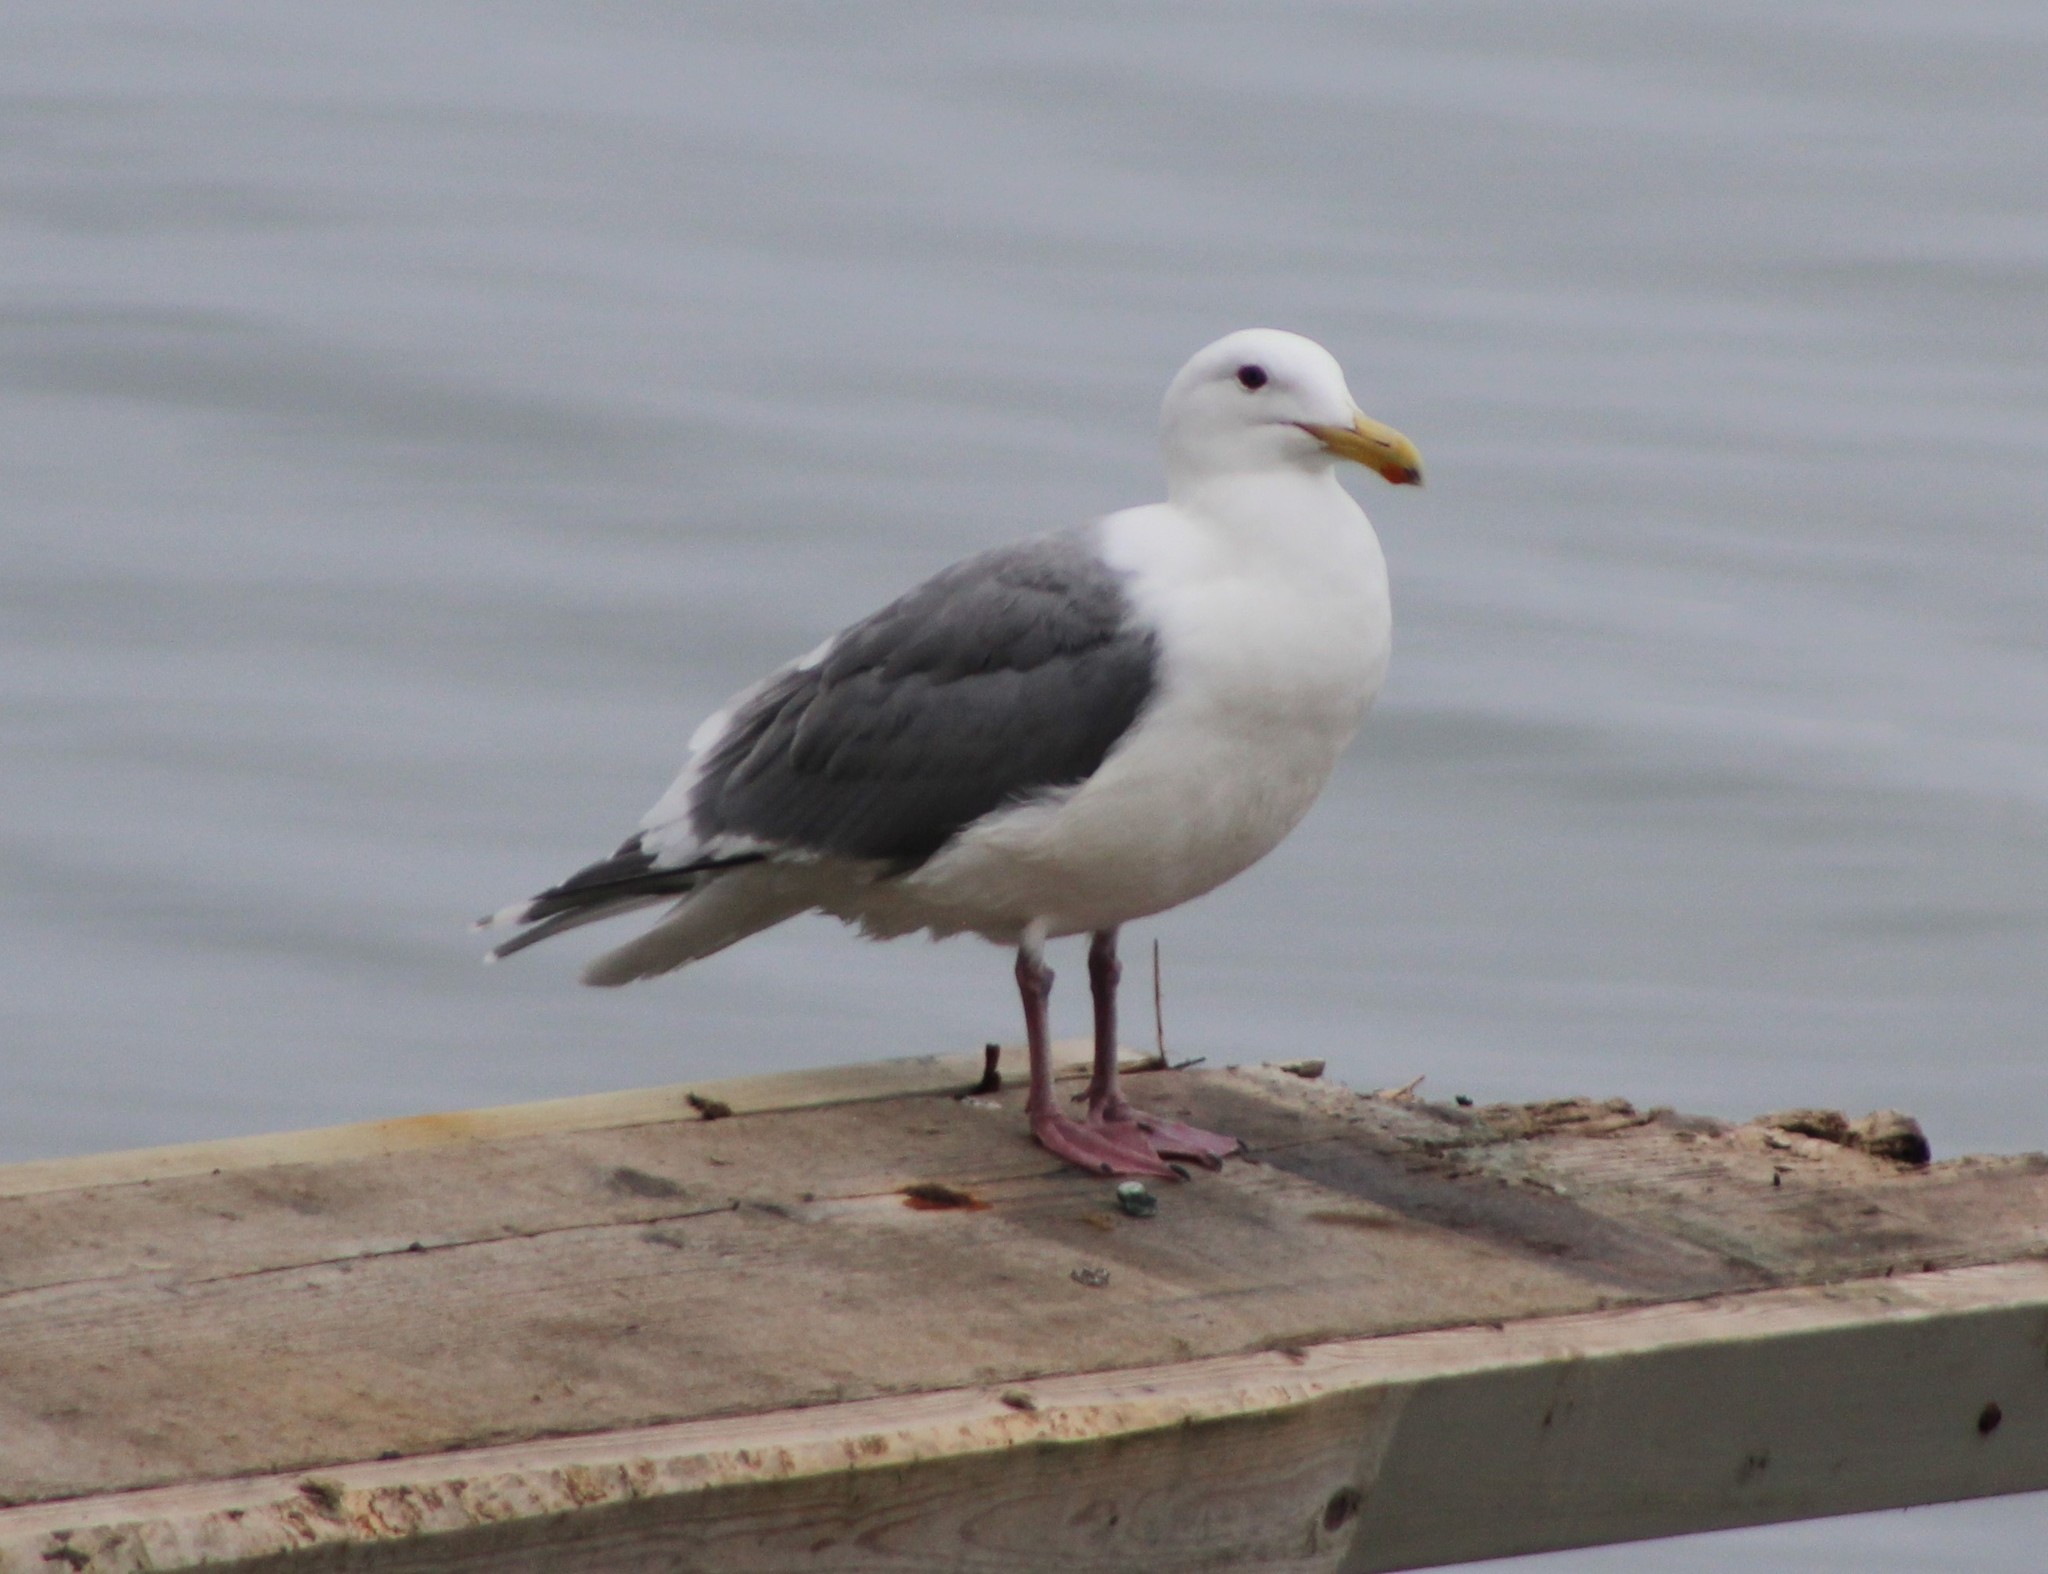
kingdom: Animalia
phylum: Chordata
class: Aves
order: Charadriiformes
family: Laridae
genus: Larus
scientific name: Larus
